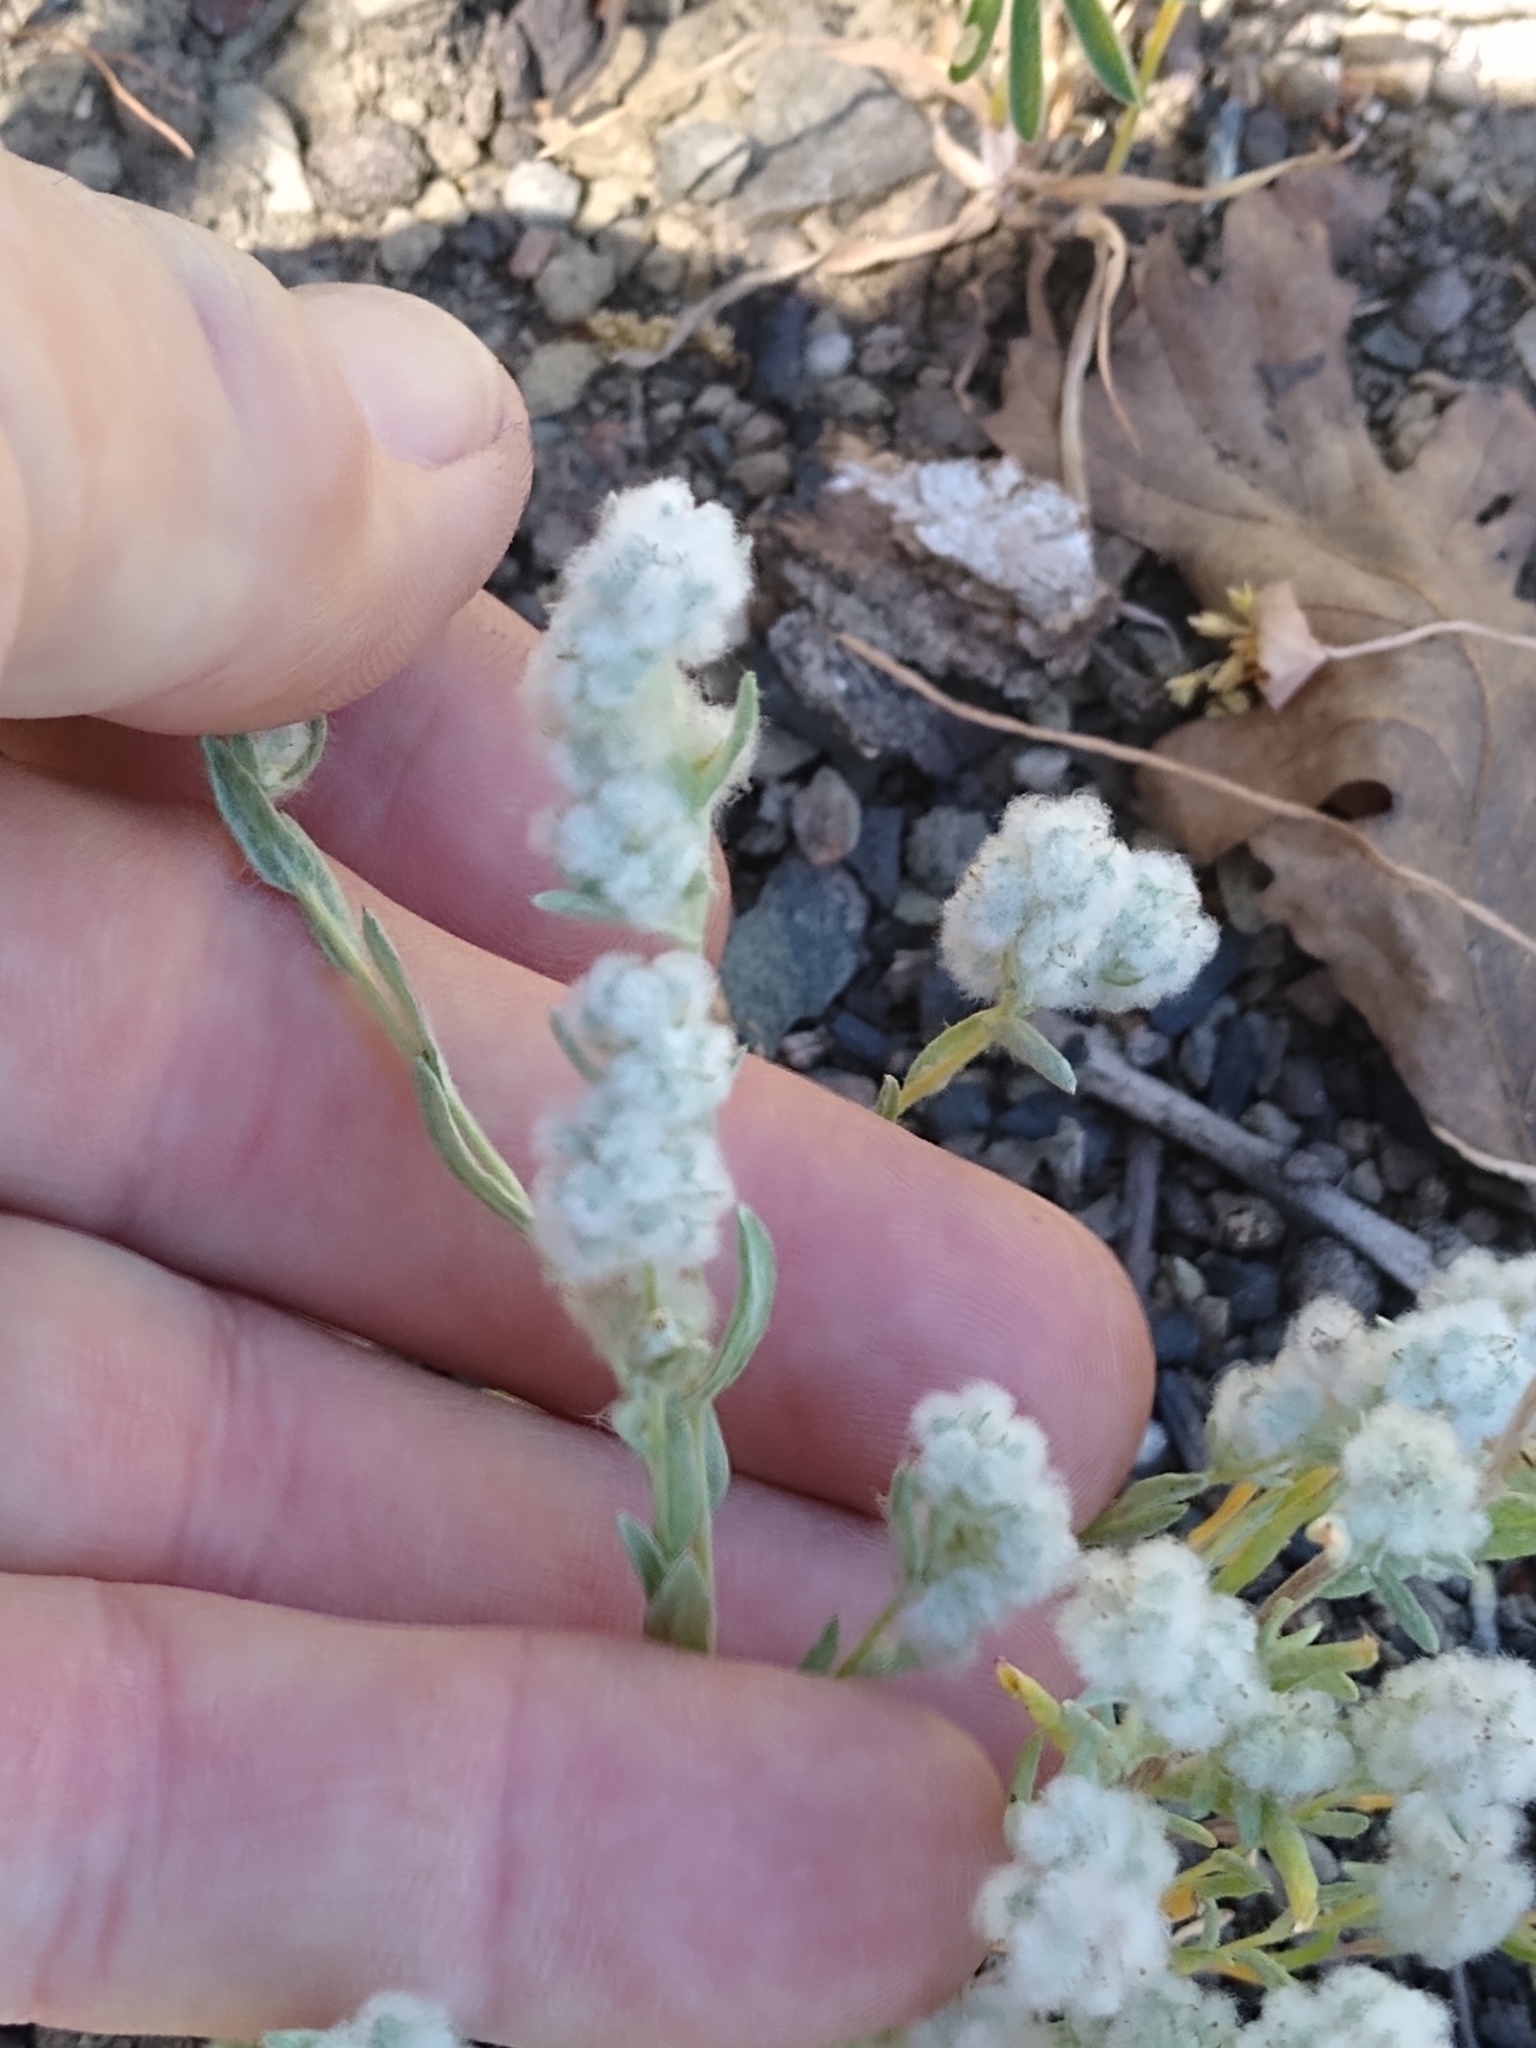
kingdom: Plantae
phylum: Tracheophyta
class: Magnoliopsida
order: Asterales
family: Asteraceae
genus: Bombycilaena
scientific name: Bombycilaena californica
